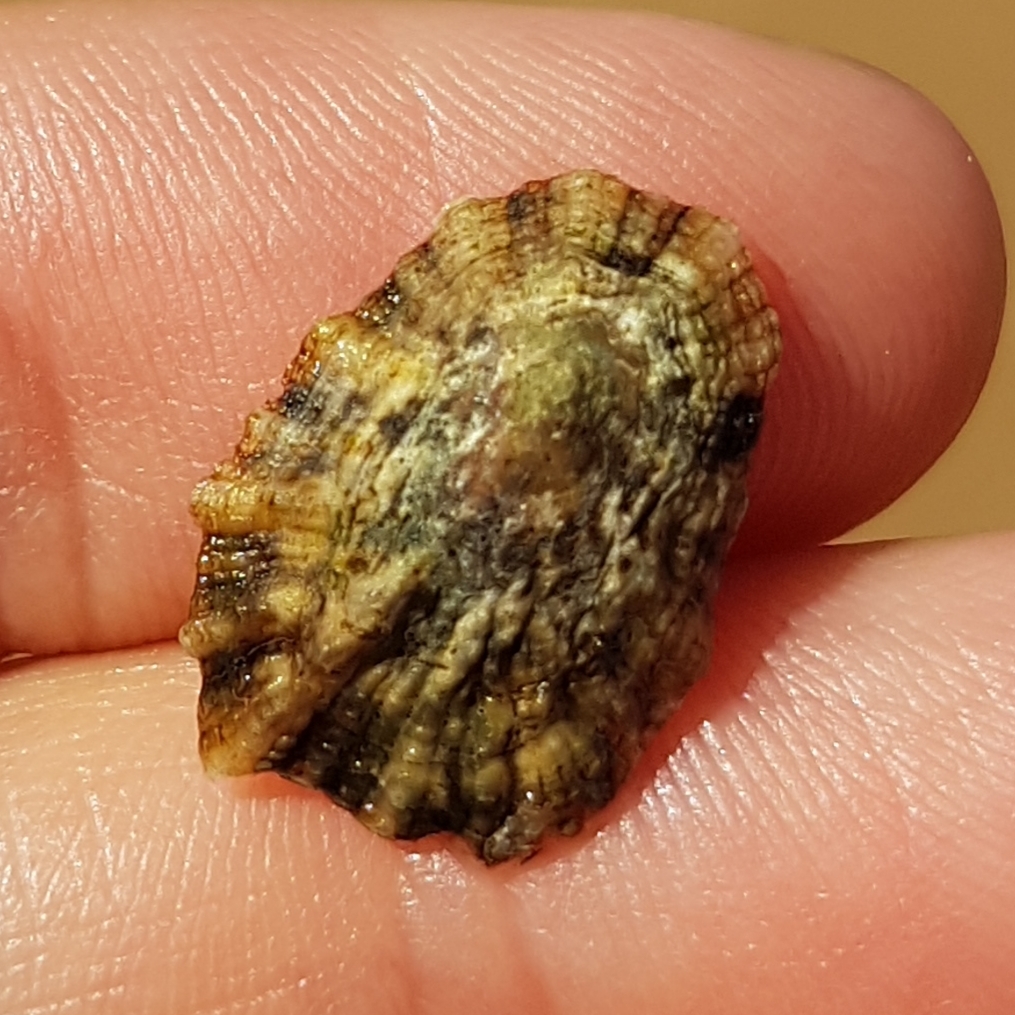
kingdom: Animalia
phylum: Mollusca
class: Gastropoda
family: Patellidae
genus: Patella
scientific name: Patella depressa
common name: Black-footed limpet
